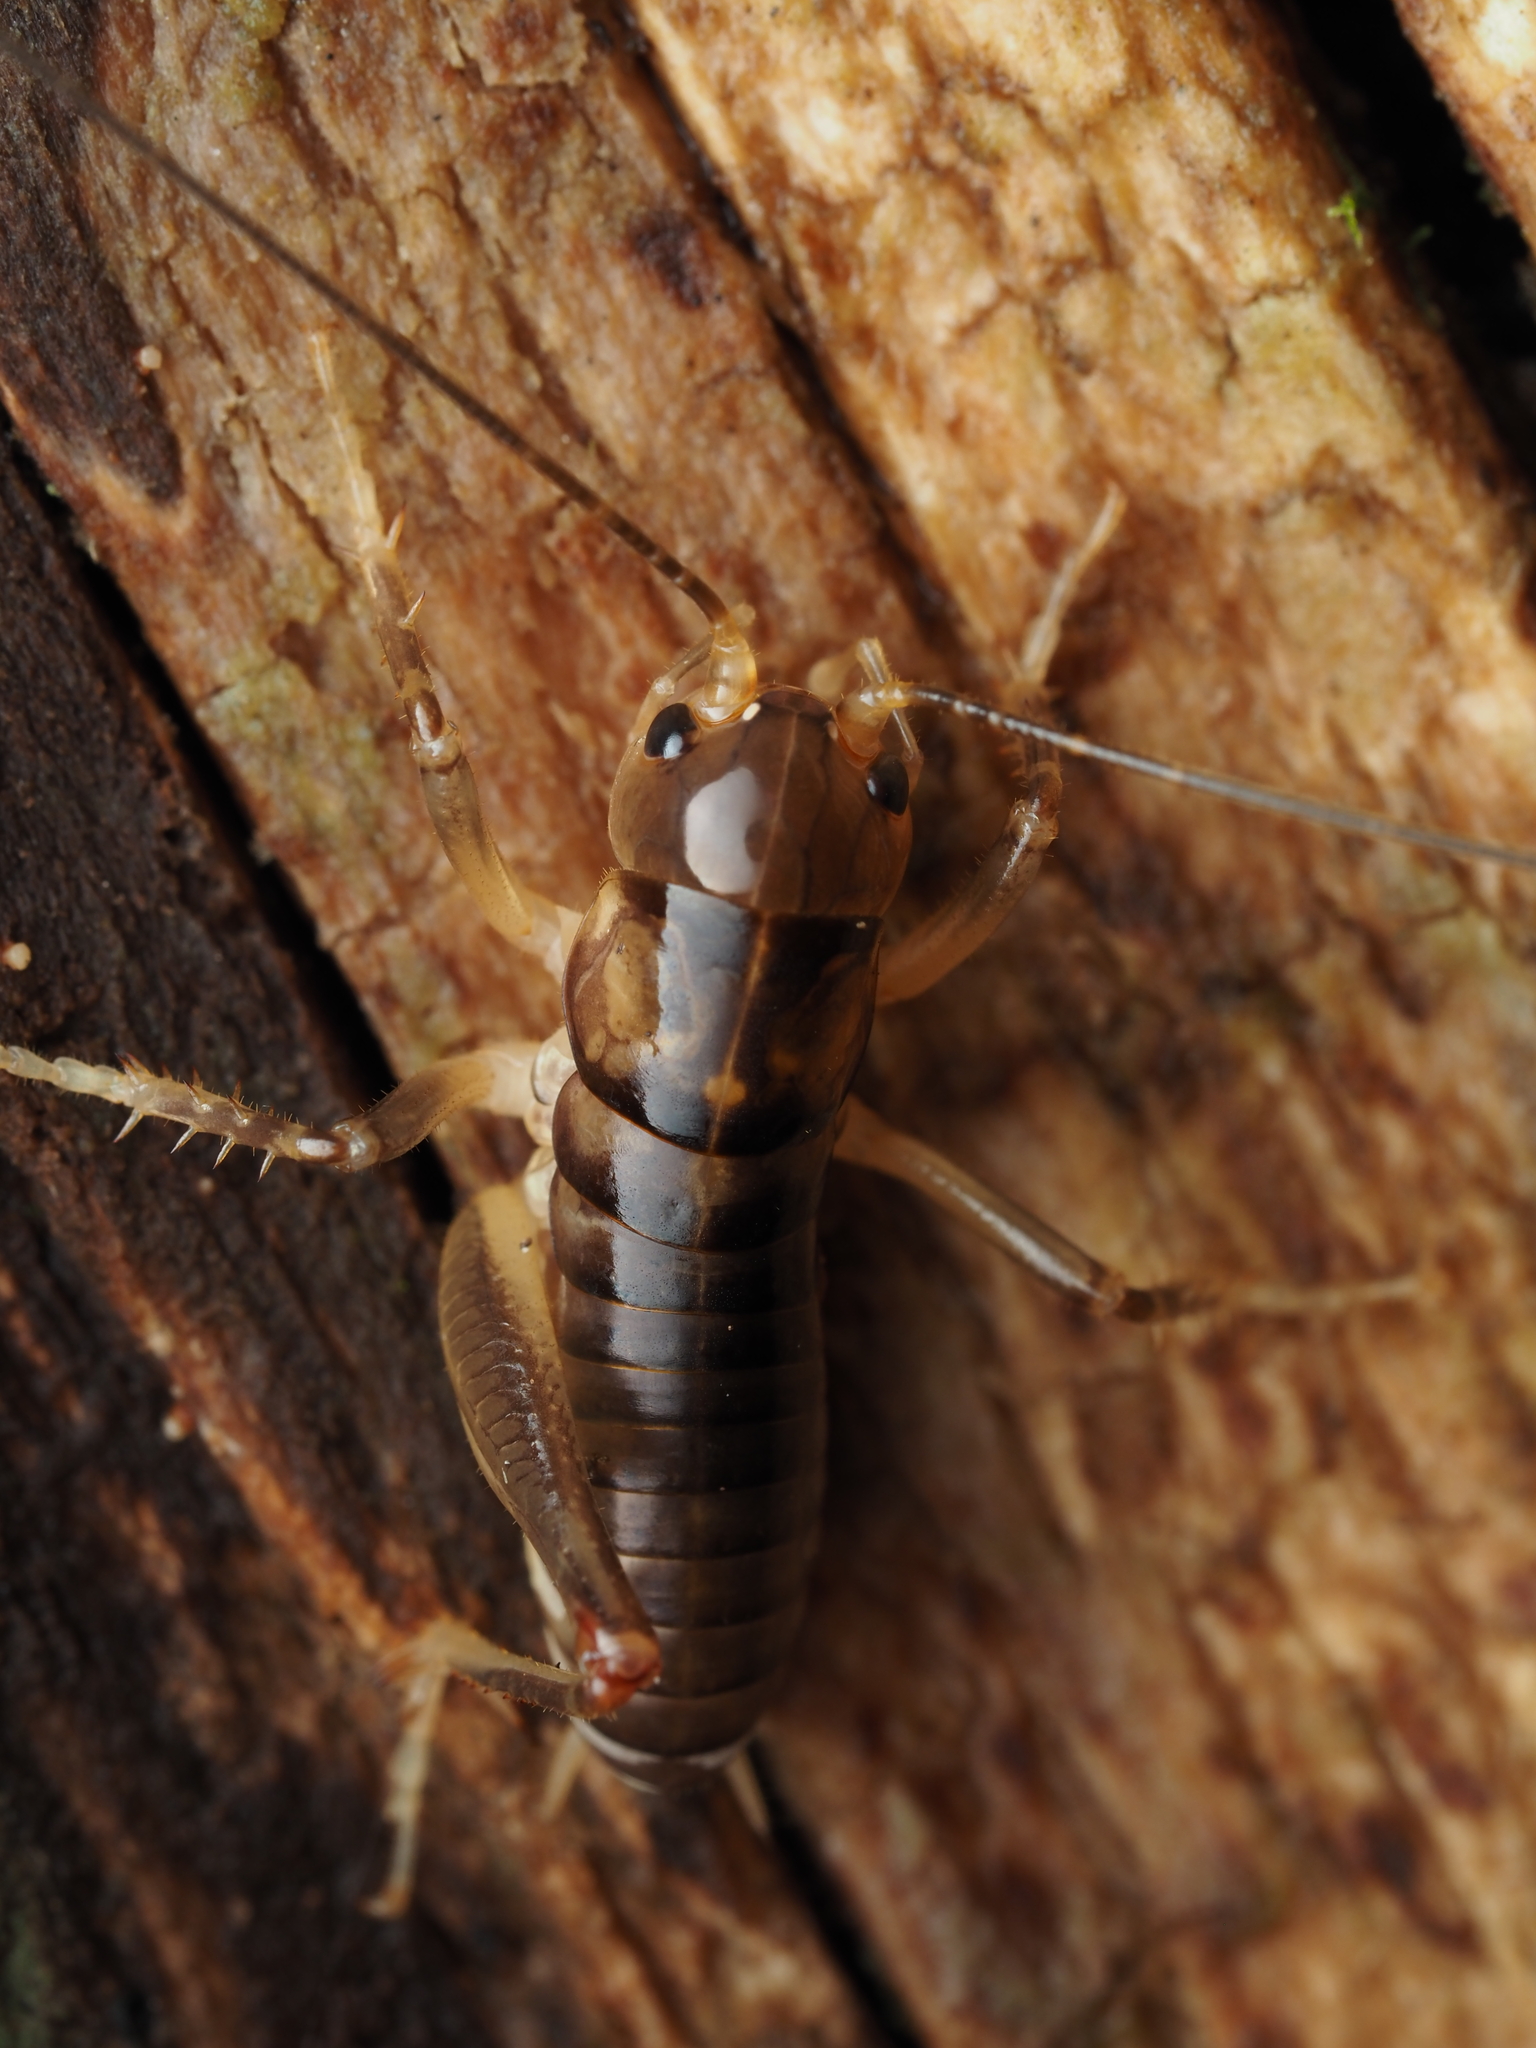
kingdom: Animalia
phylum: Arthropoda
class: Insecta
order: Orthoptera
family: Anostostomatidae
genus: Hemiandrus
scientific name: Hemiandrus pallitarsis
